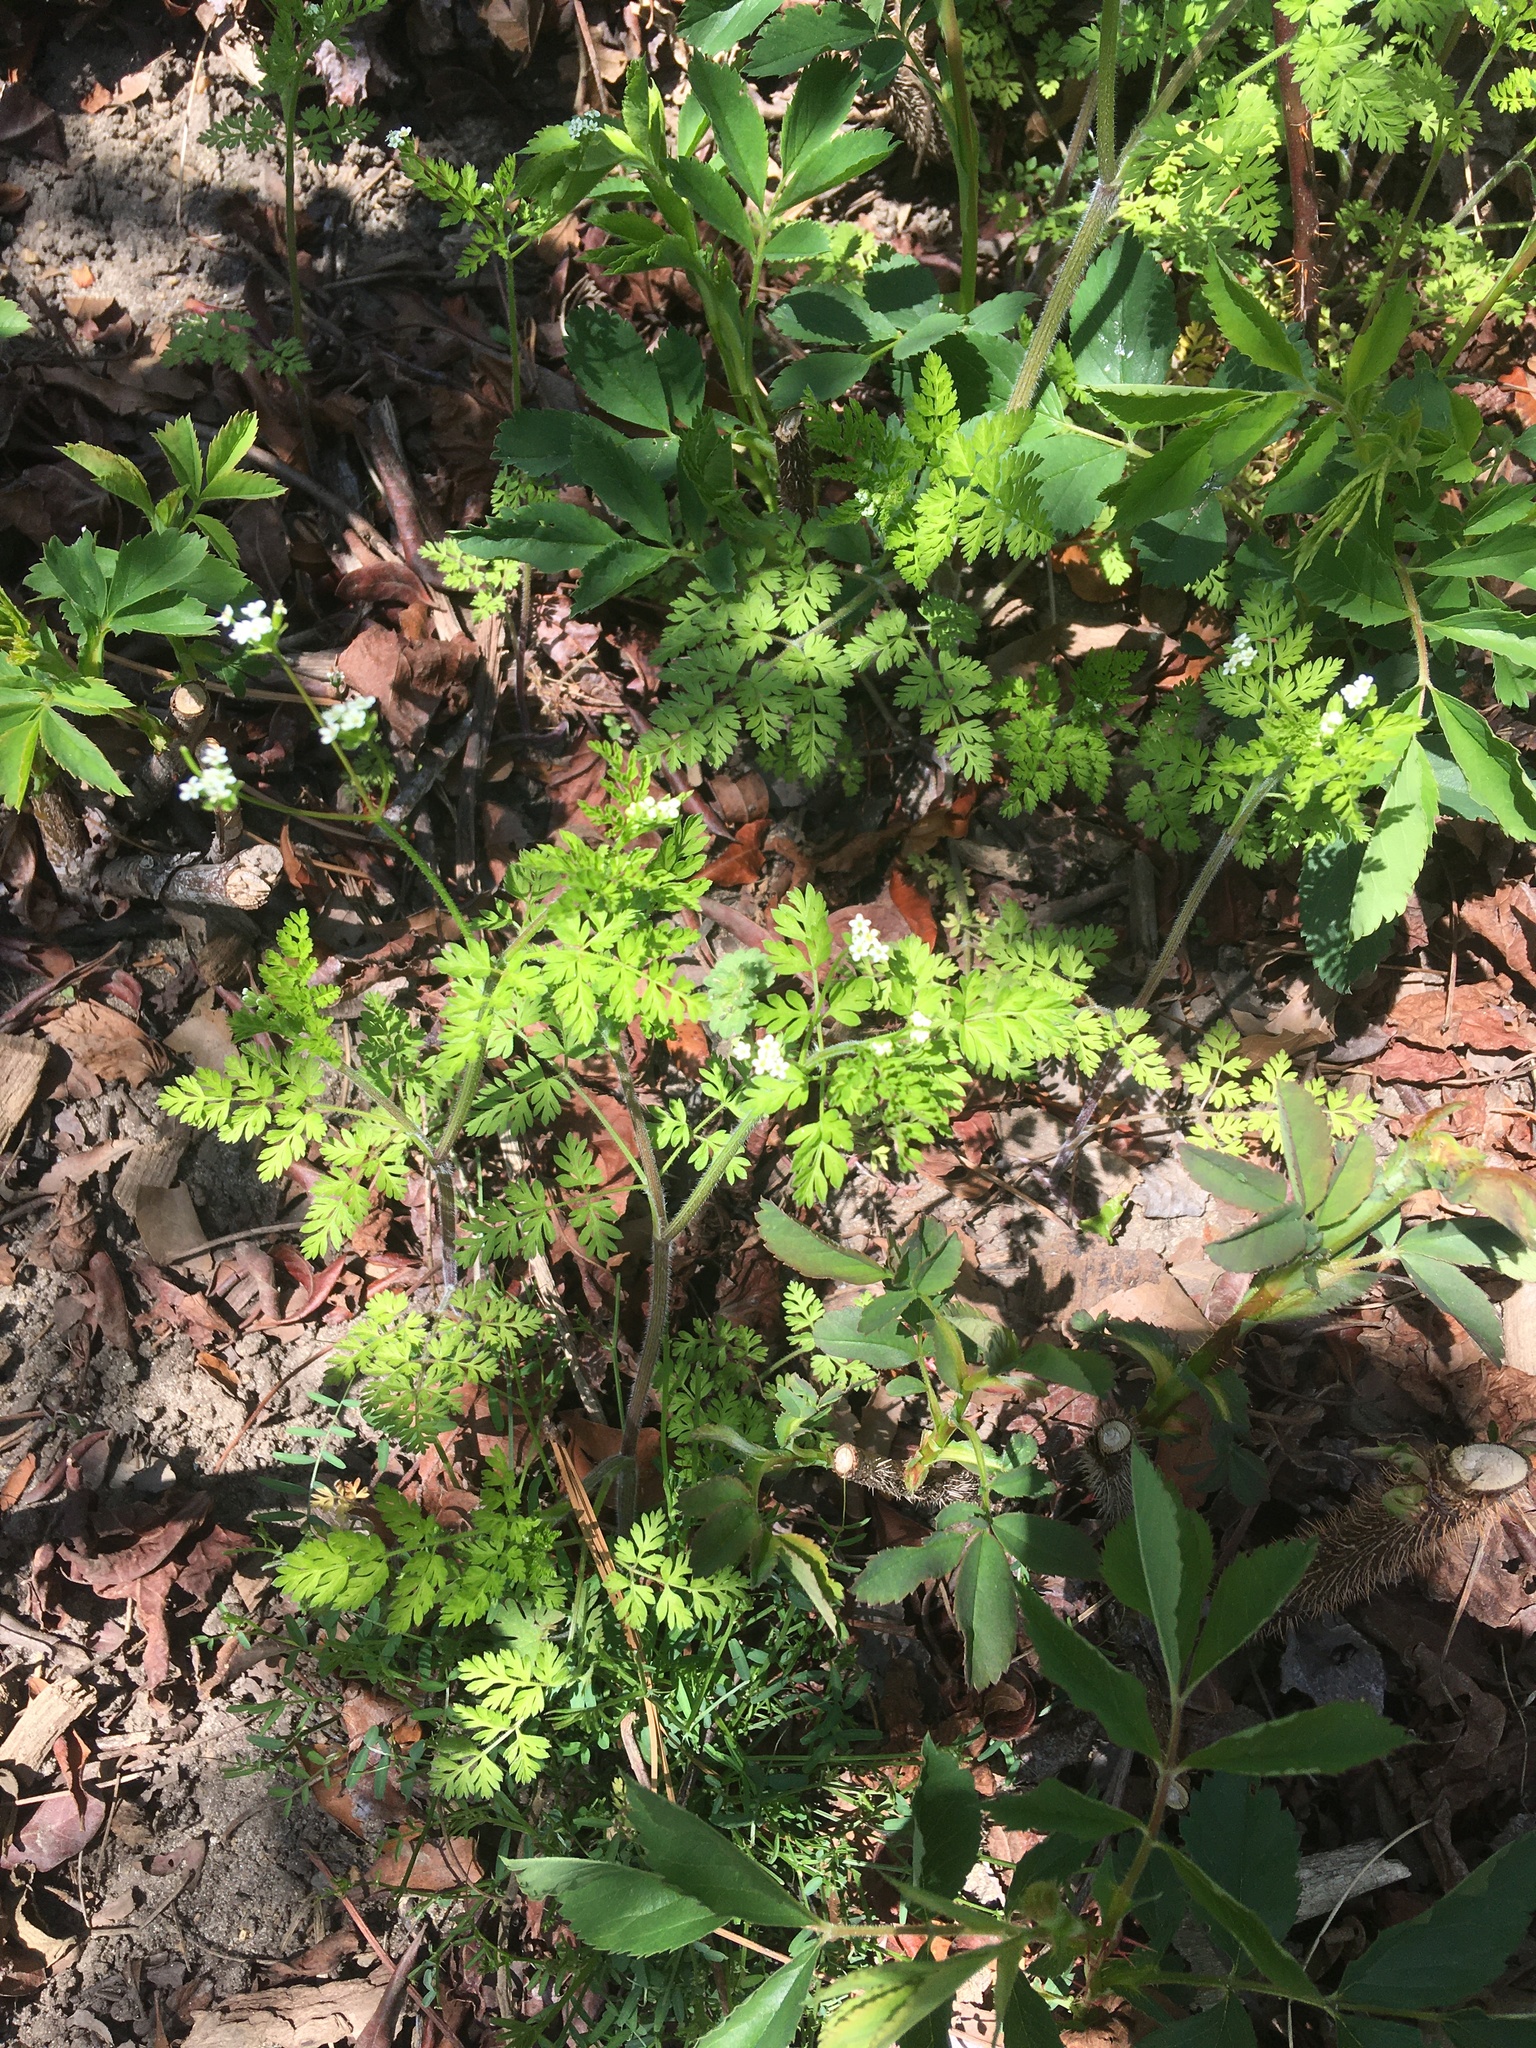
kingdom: Plantae
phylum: Tracheophyta
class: Magnoliopsida
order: Apiales
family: Apiaceae
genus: Chaerophyllum
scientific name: Chaerophyllum tainturieri
